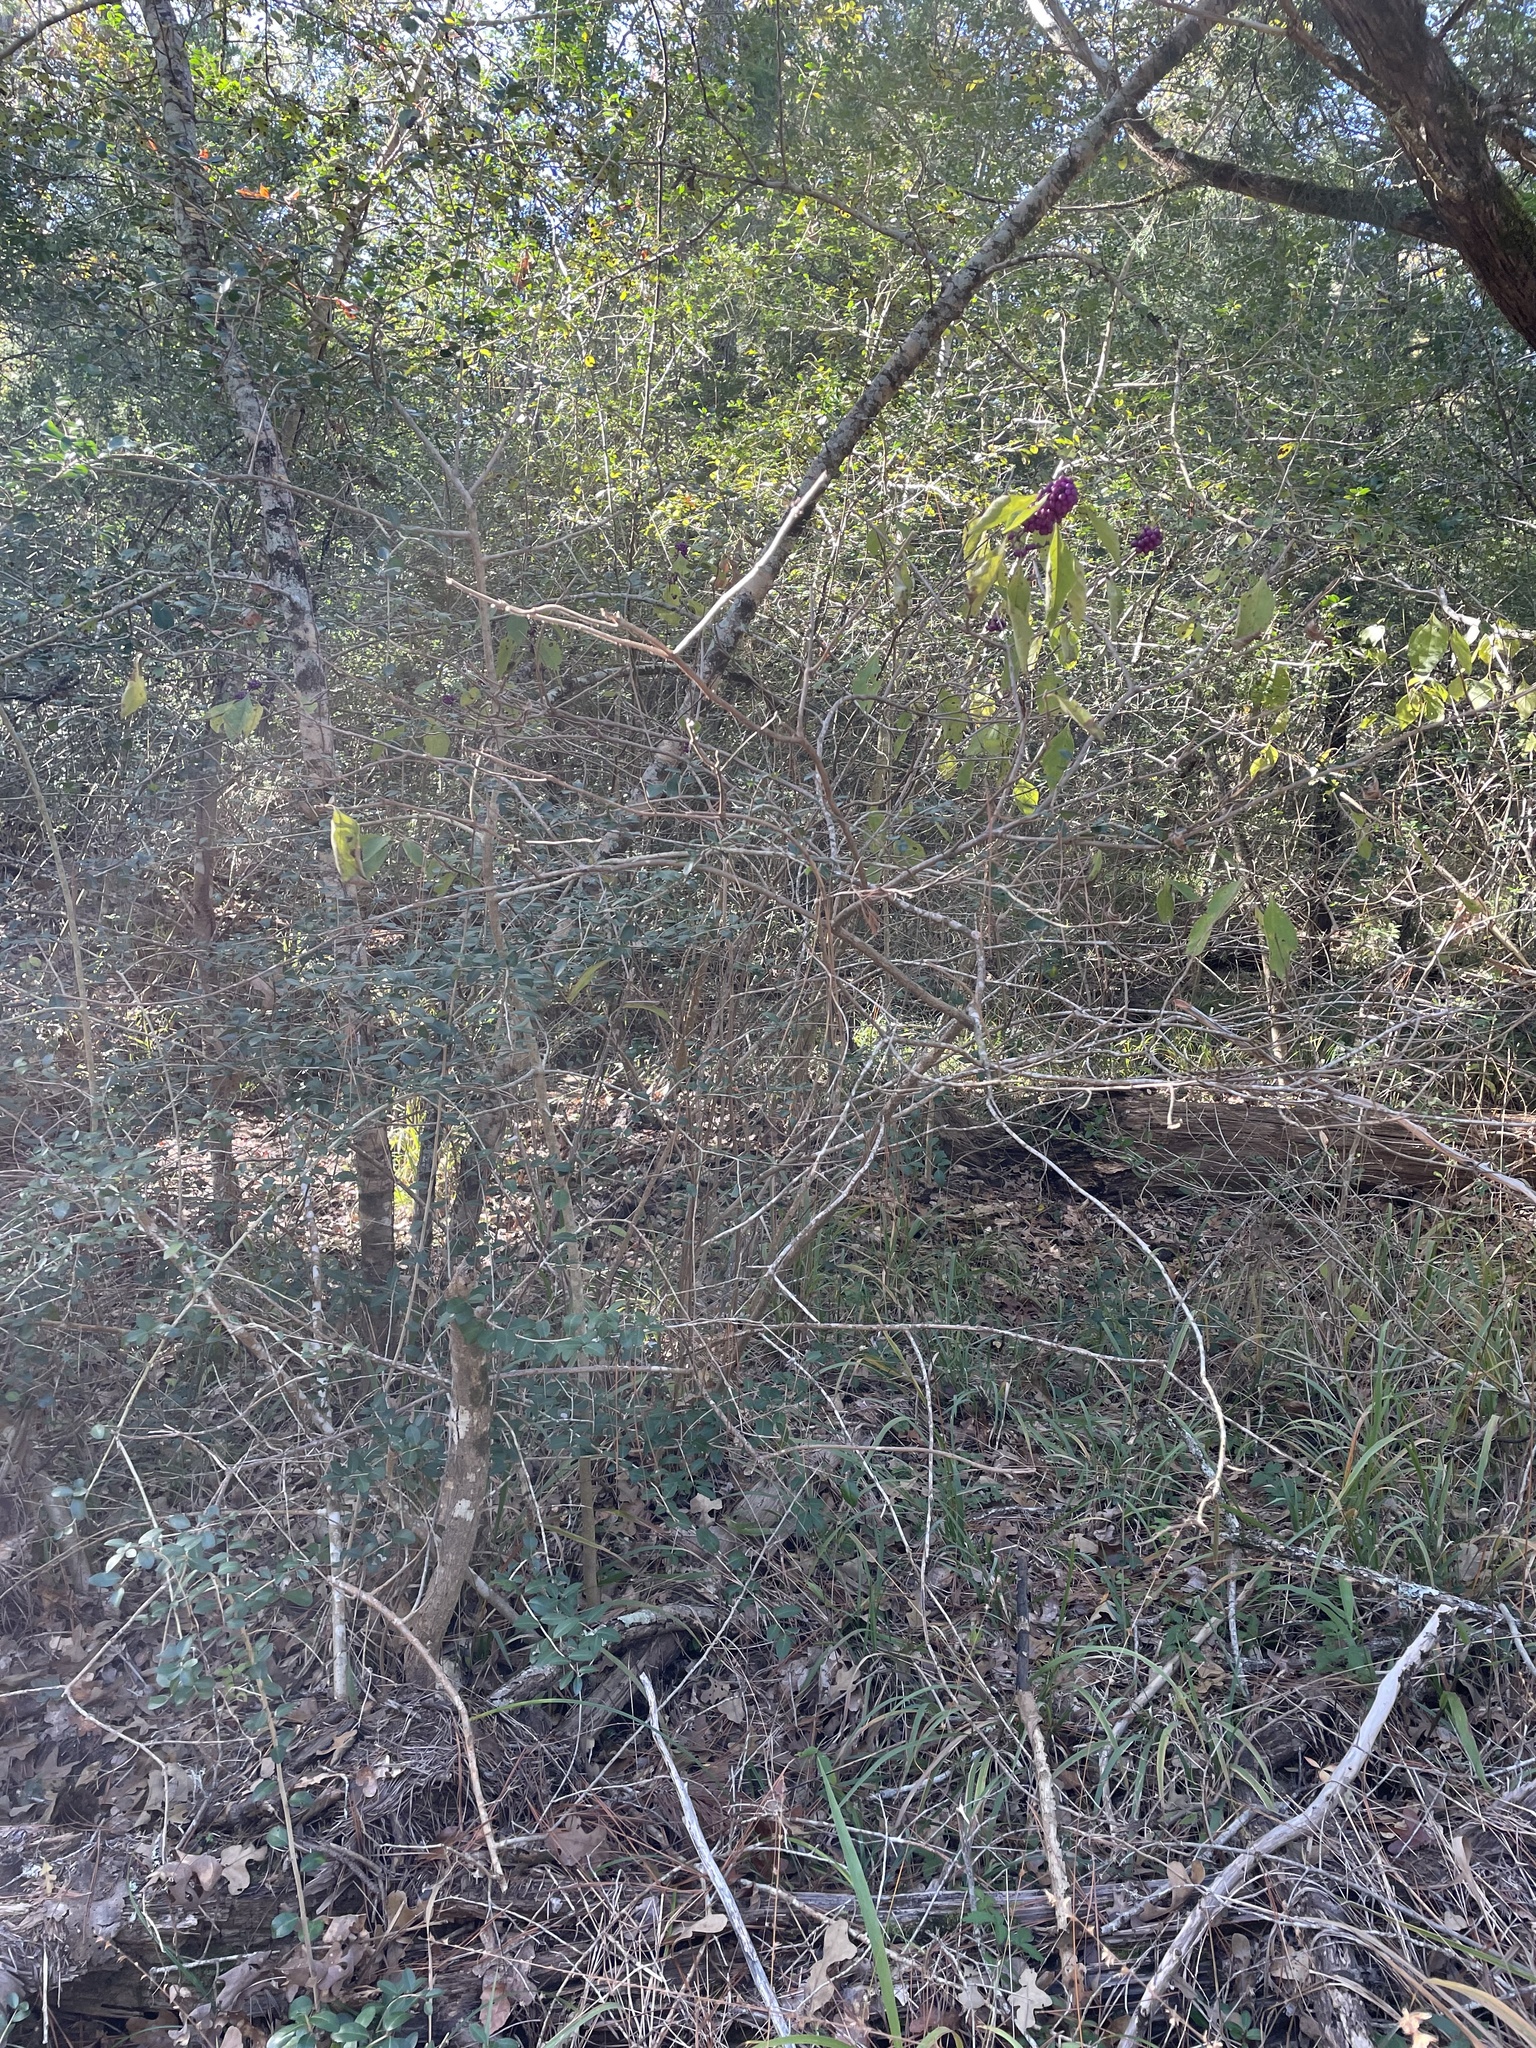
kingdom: Plantae
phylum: Tracheophyta
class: Magnoliopsida
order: Lamiales
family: Lamiaceae
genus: Callicarpa
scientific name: Callicarpa americana
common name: American beautyberry
